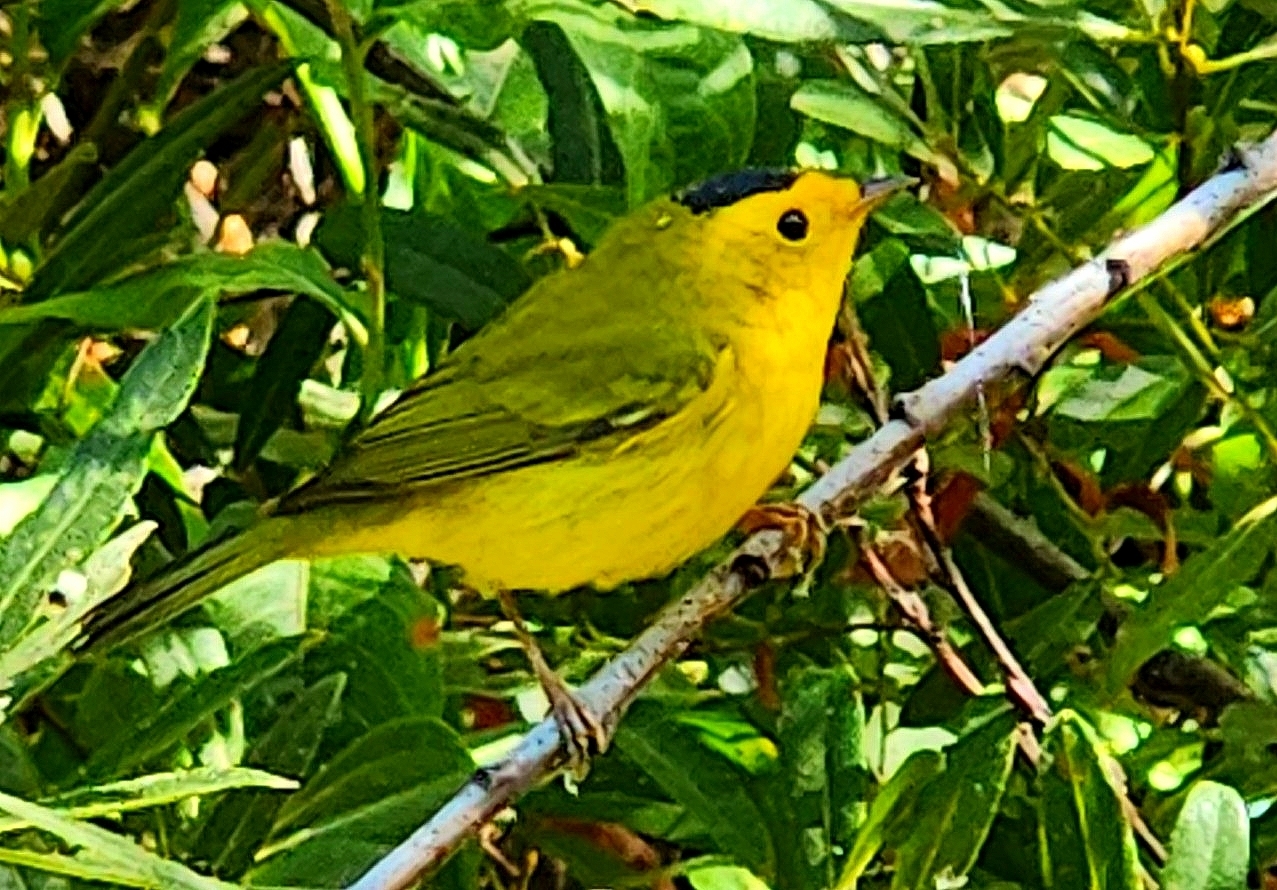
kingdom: Animalia
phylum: Chordata
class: Aves
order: Passeriformes
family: Parulidae
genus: Cardellina
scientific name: Cardellina pusilla
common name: Wilson's warbler
